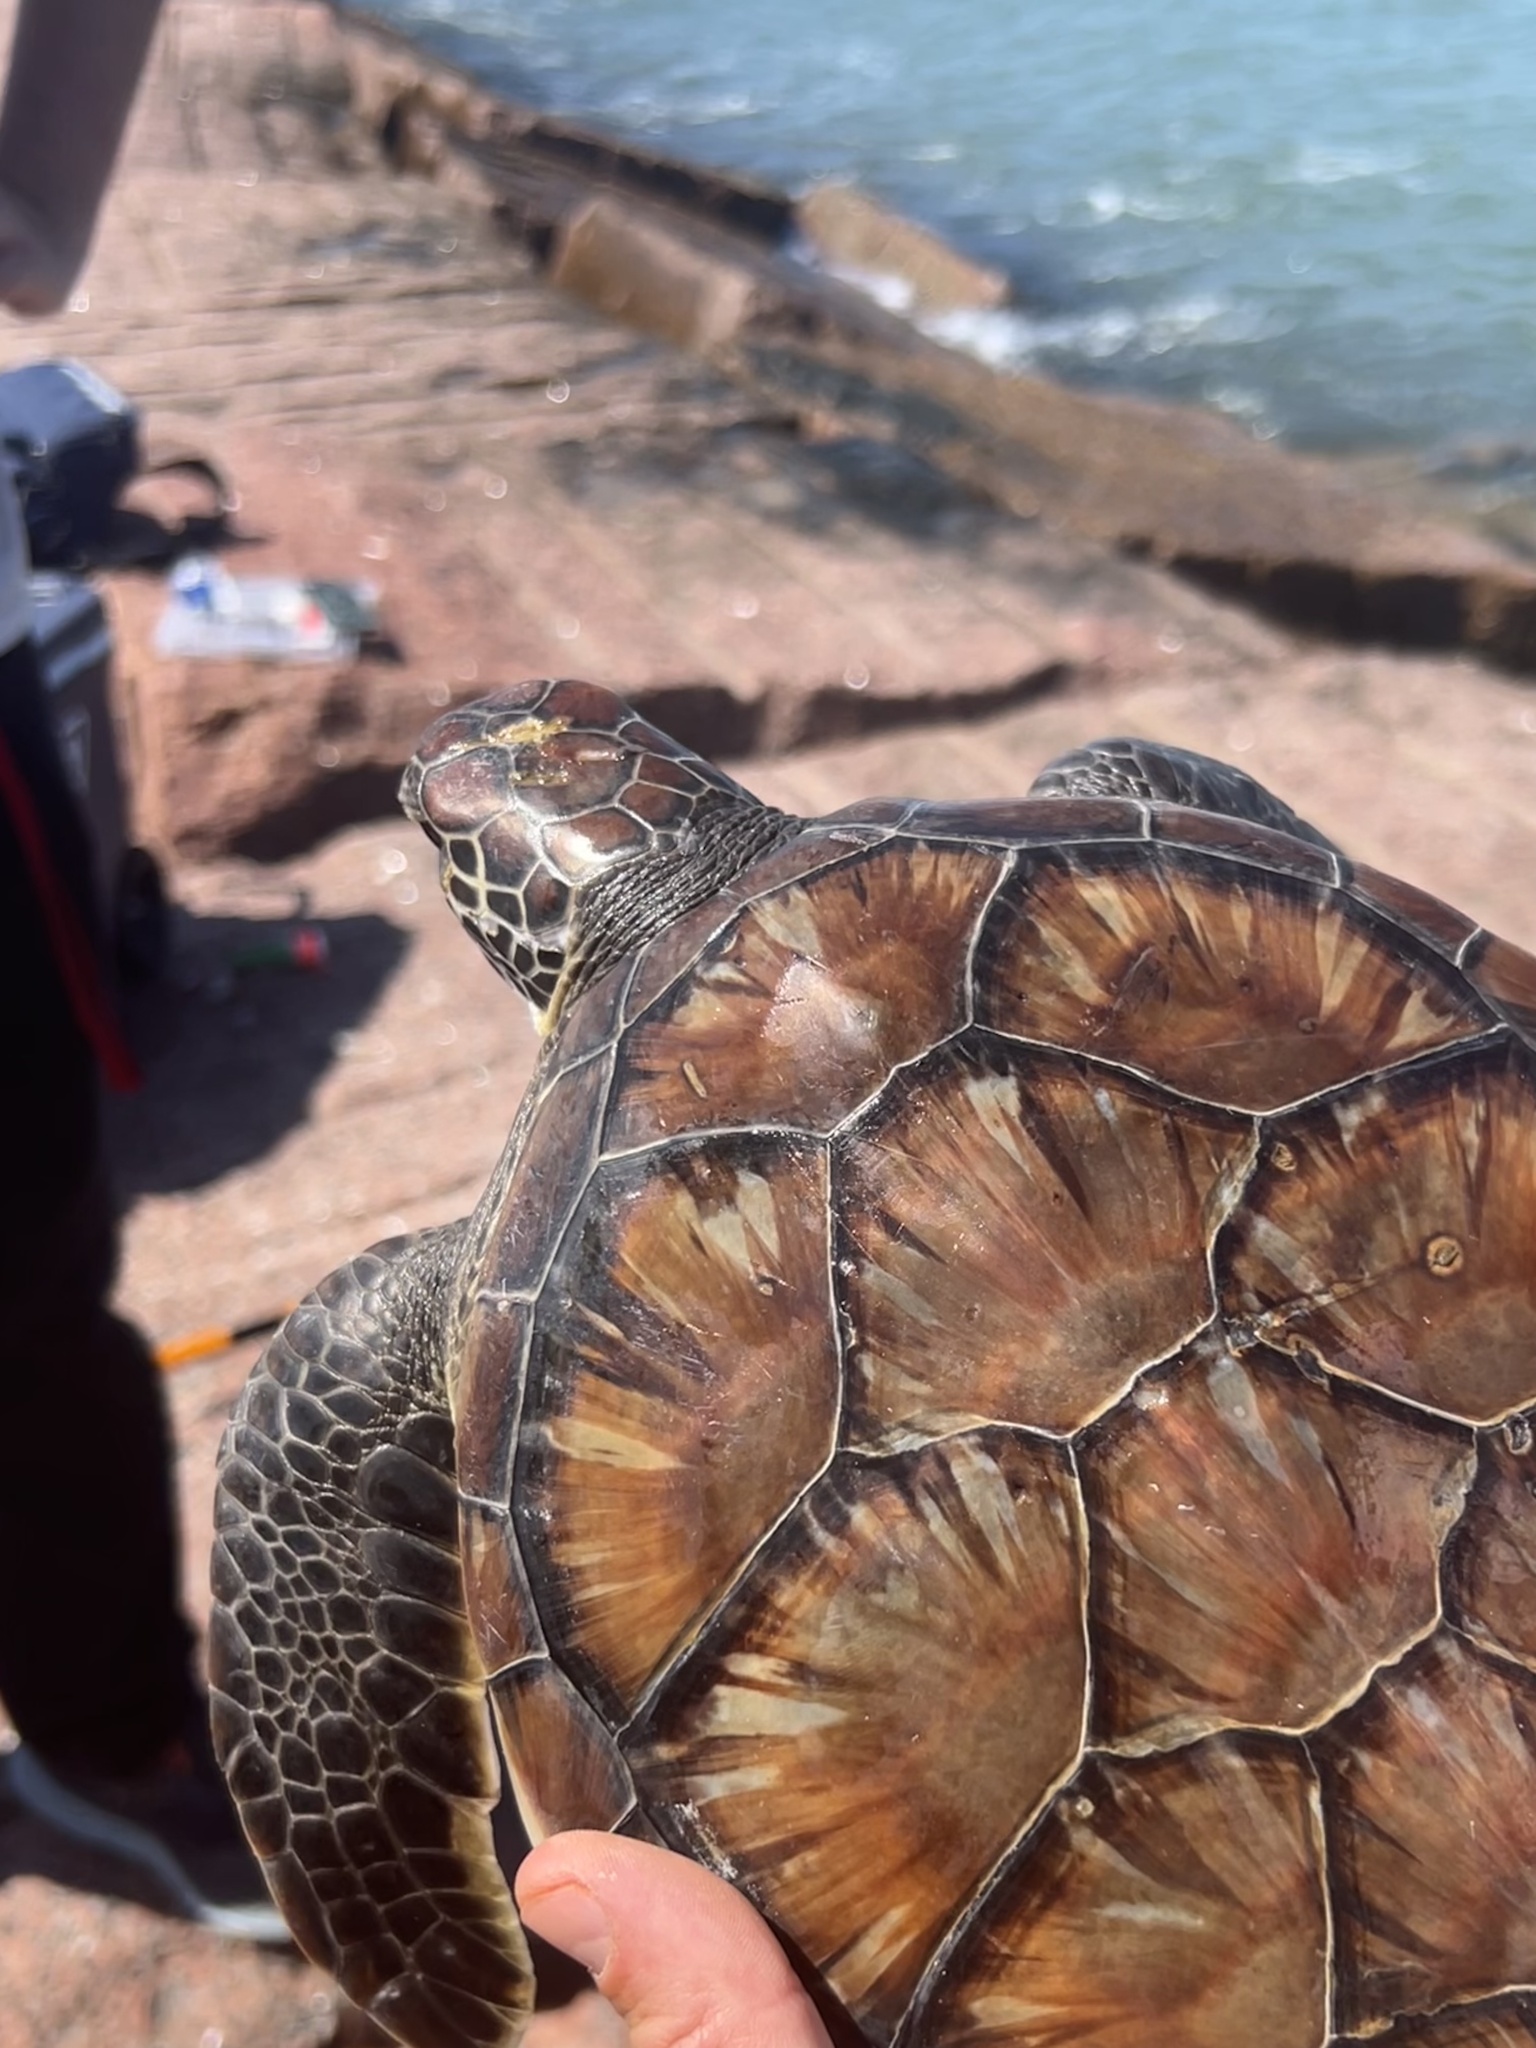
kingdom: Animalia
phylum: Chordata
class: Testudines
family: Cheloniidae
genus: Chelonia
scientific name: Chelonia mydas
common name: Green turtle
